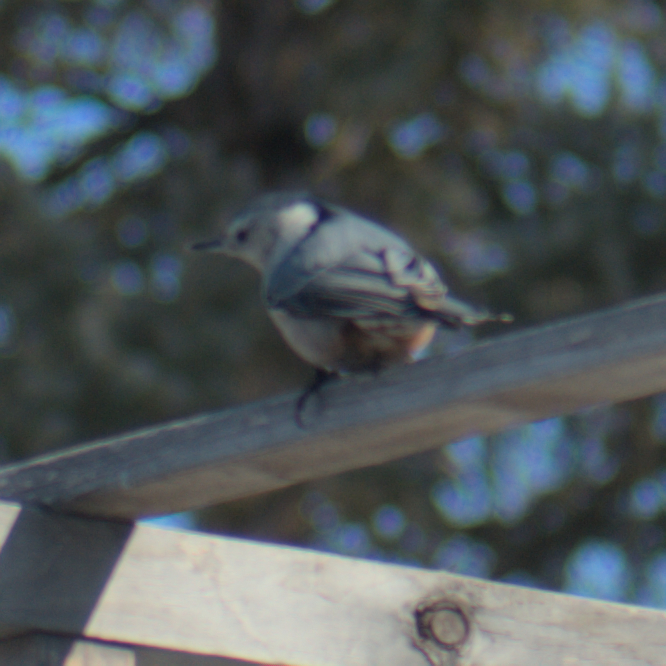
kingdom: Animalia
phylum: Chordata
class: Aves
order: Passeriformes
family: Sittidae
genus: Sitta
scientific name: Sitta carolinensis
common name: White-breasted nuthatch
